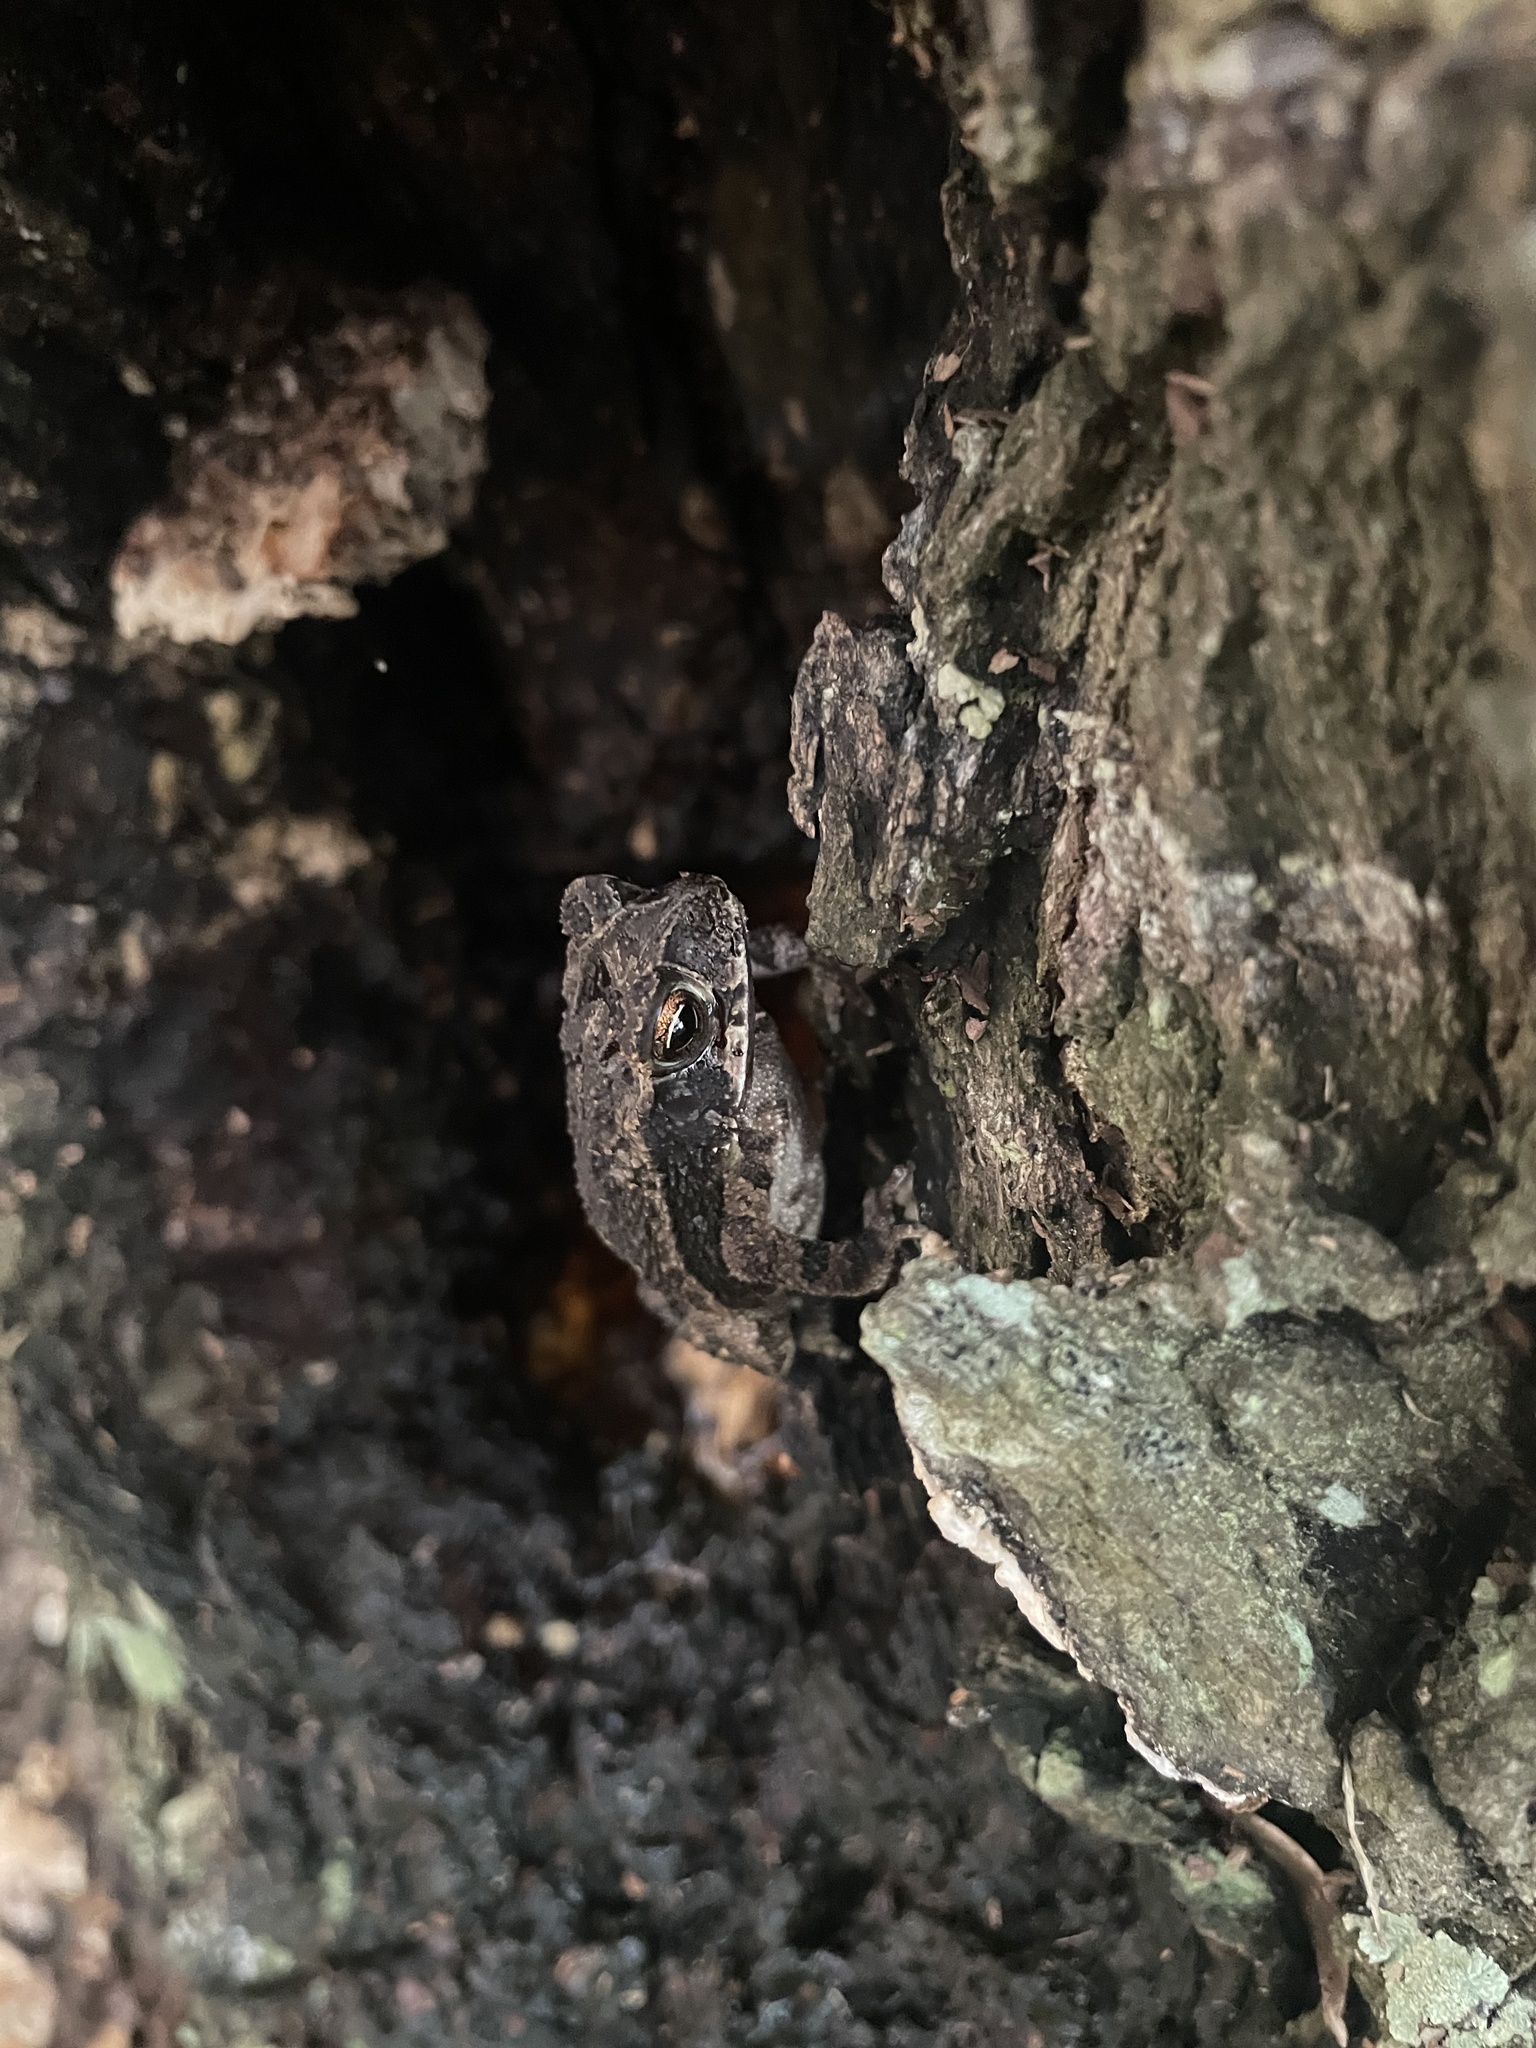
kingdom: Animalia
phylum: Chordata
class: Amphibia
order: Anura
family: Bufonidae
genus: Incilius
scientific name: Incilius nebulifer
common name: Gulf coast toad
